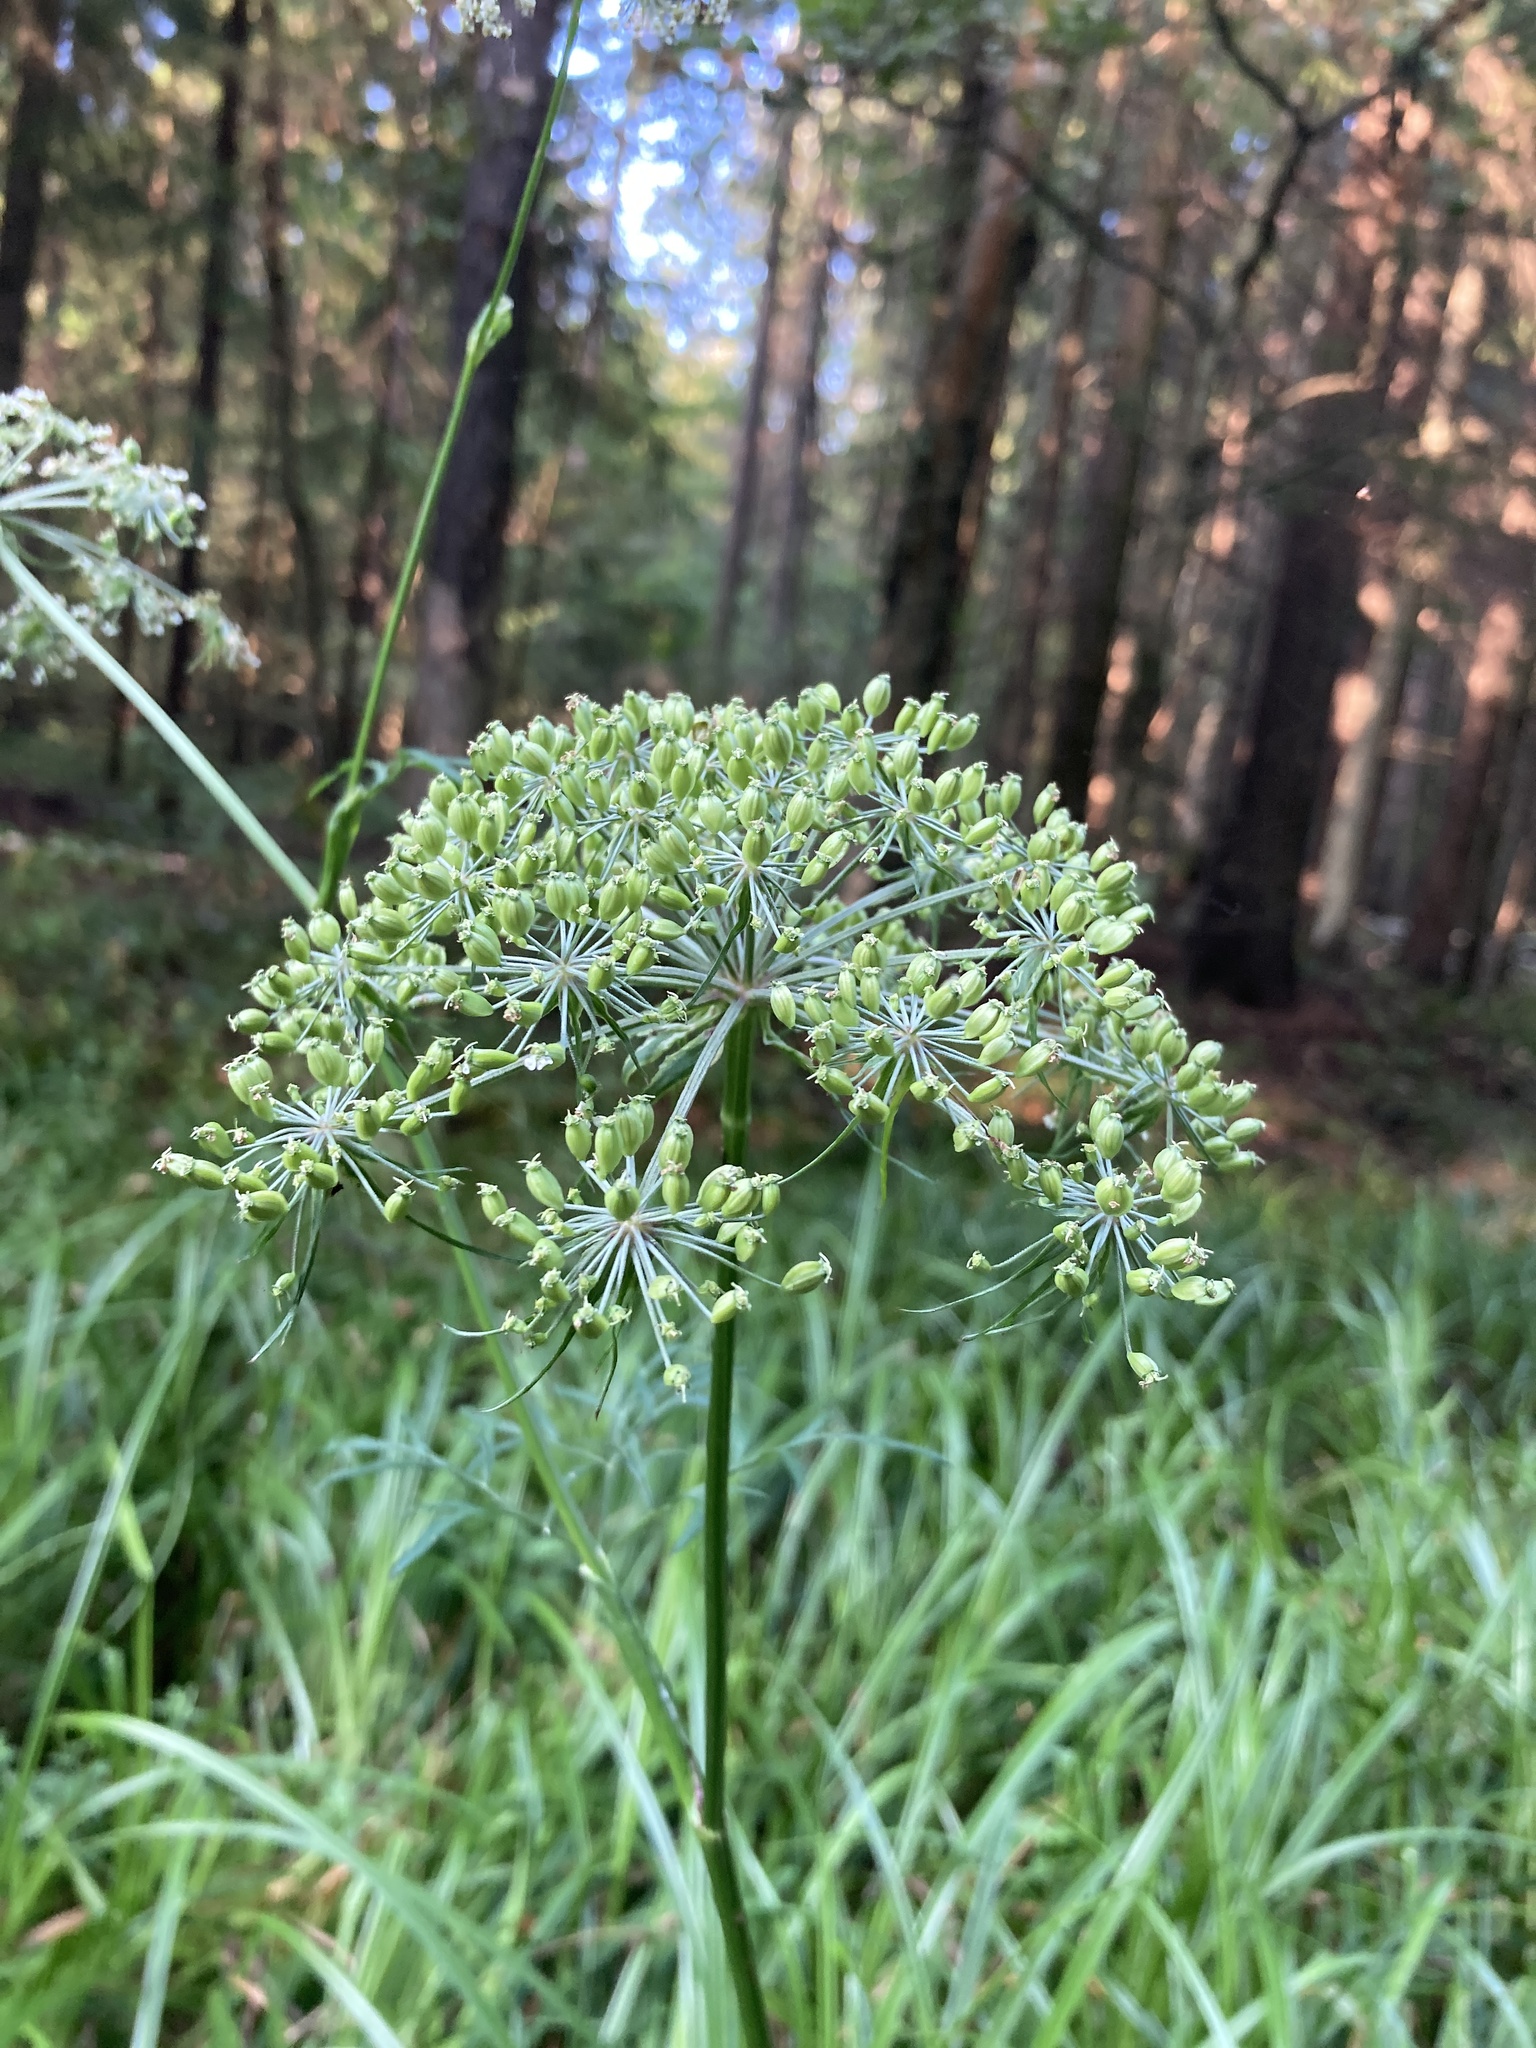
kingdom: Plantae
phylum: Tracheophyta
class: Magnoliopsida
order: Apiales
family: Apiaceae
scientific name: Apiaceae
